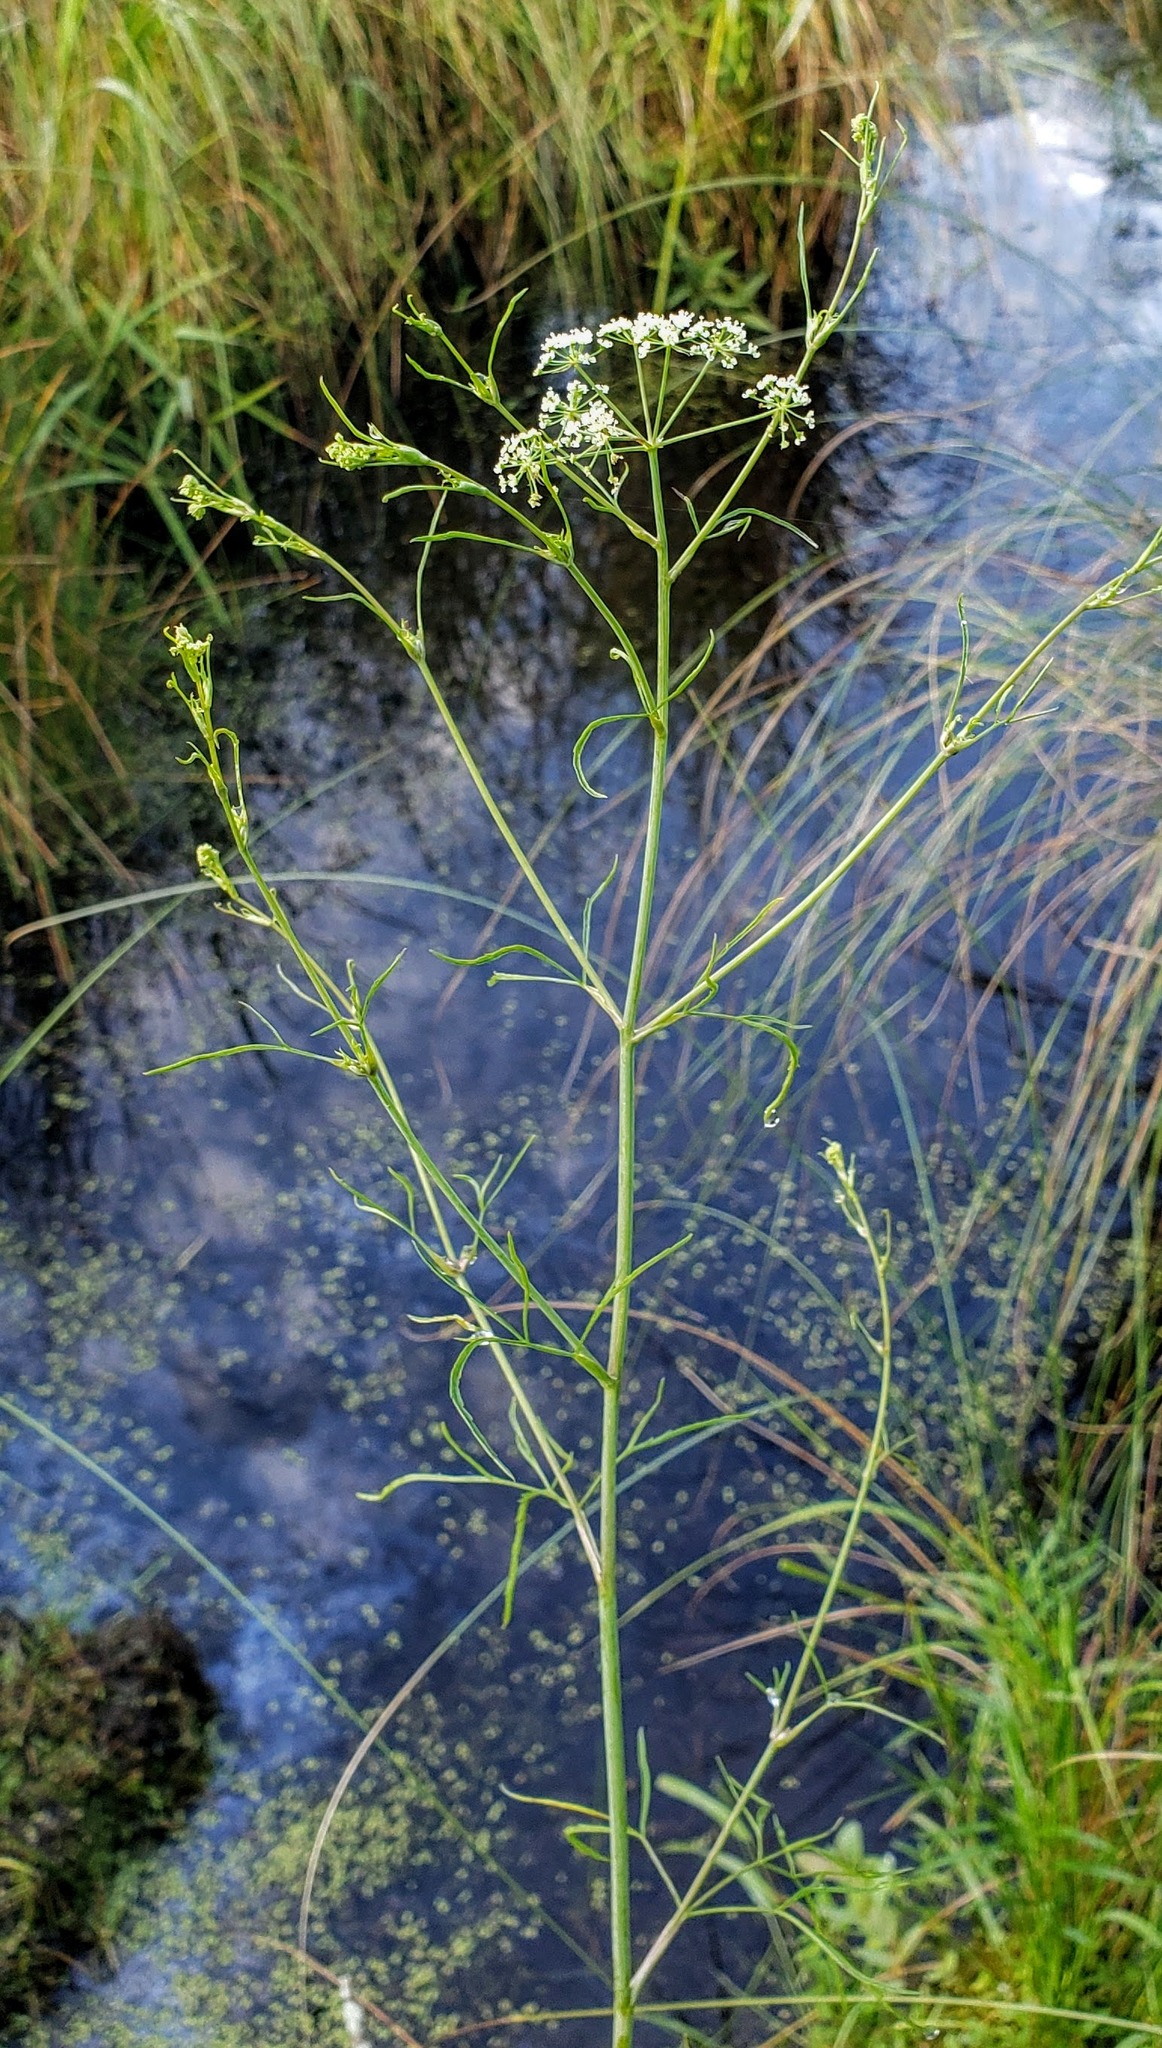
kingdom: Plantae
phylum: Tracheophyta
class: Magnoliopsida
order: Apiales
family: Apiaceae
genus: Cicuta
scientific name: Cicuta bulbifera
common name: Bulb-bearing water-hemlock
